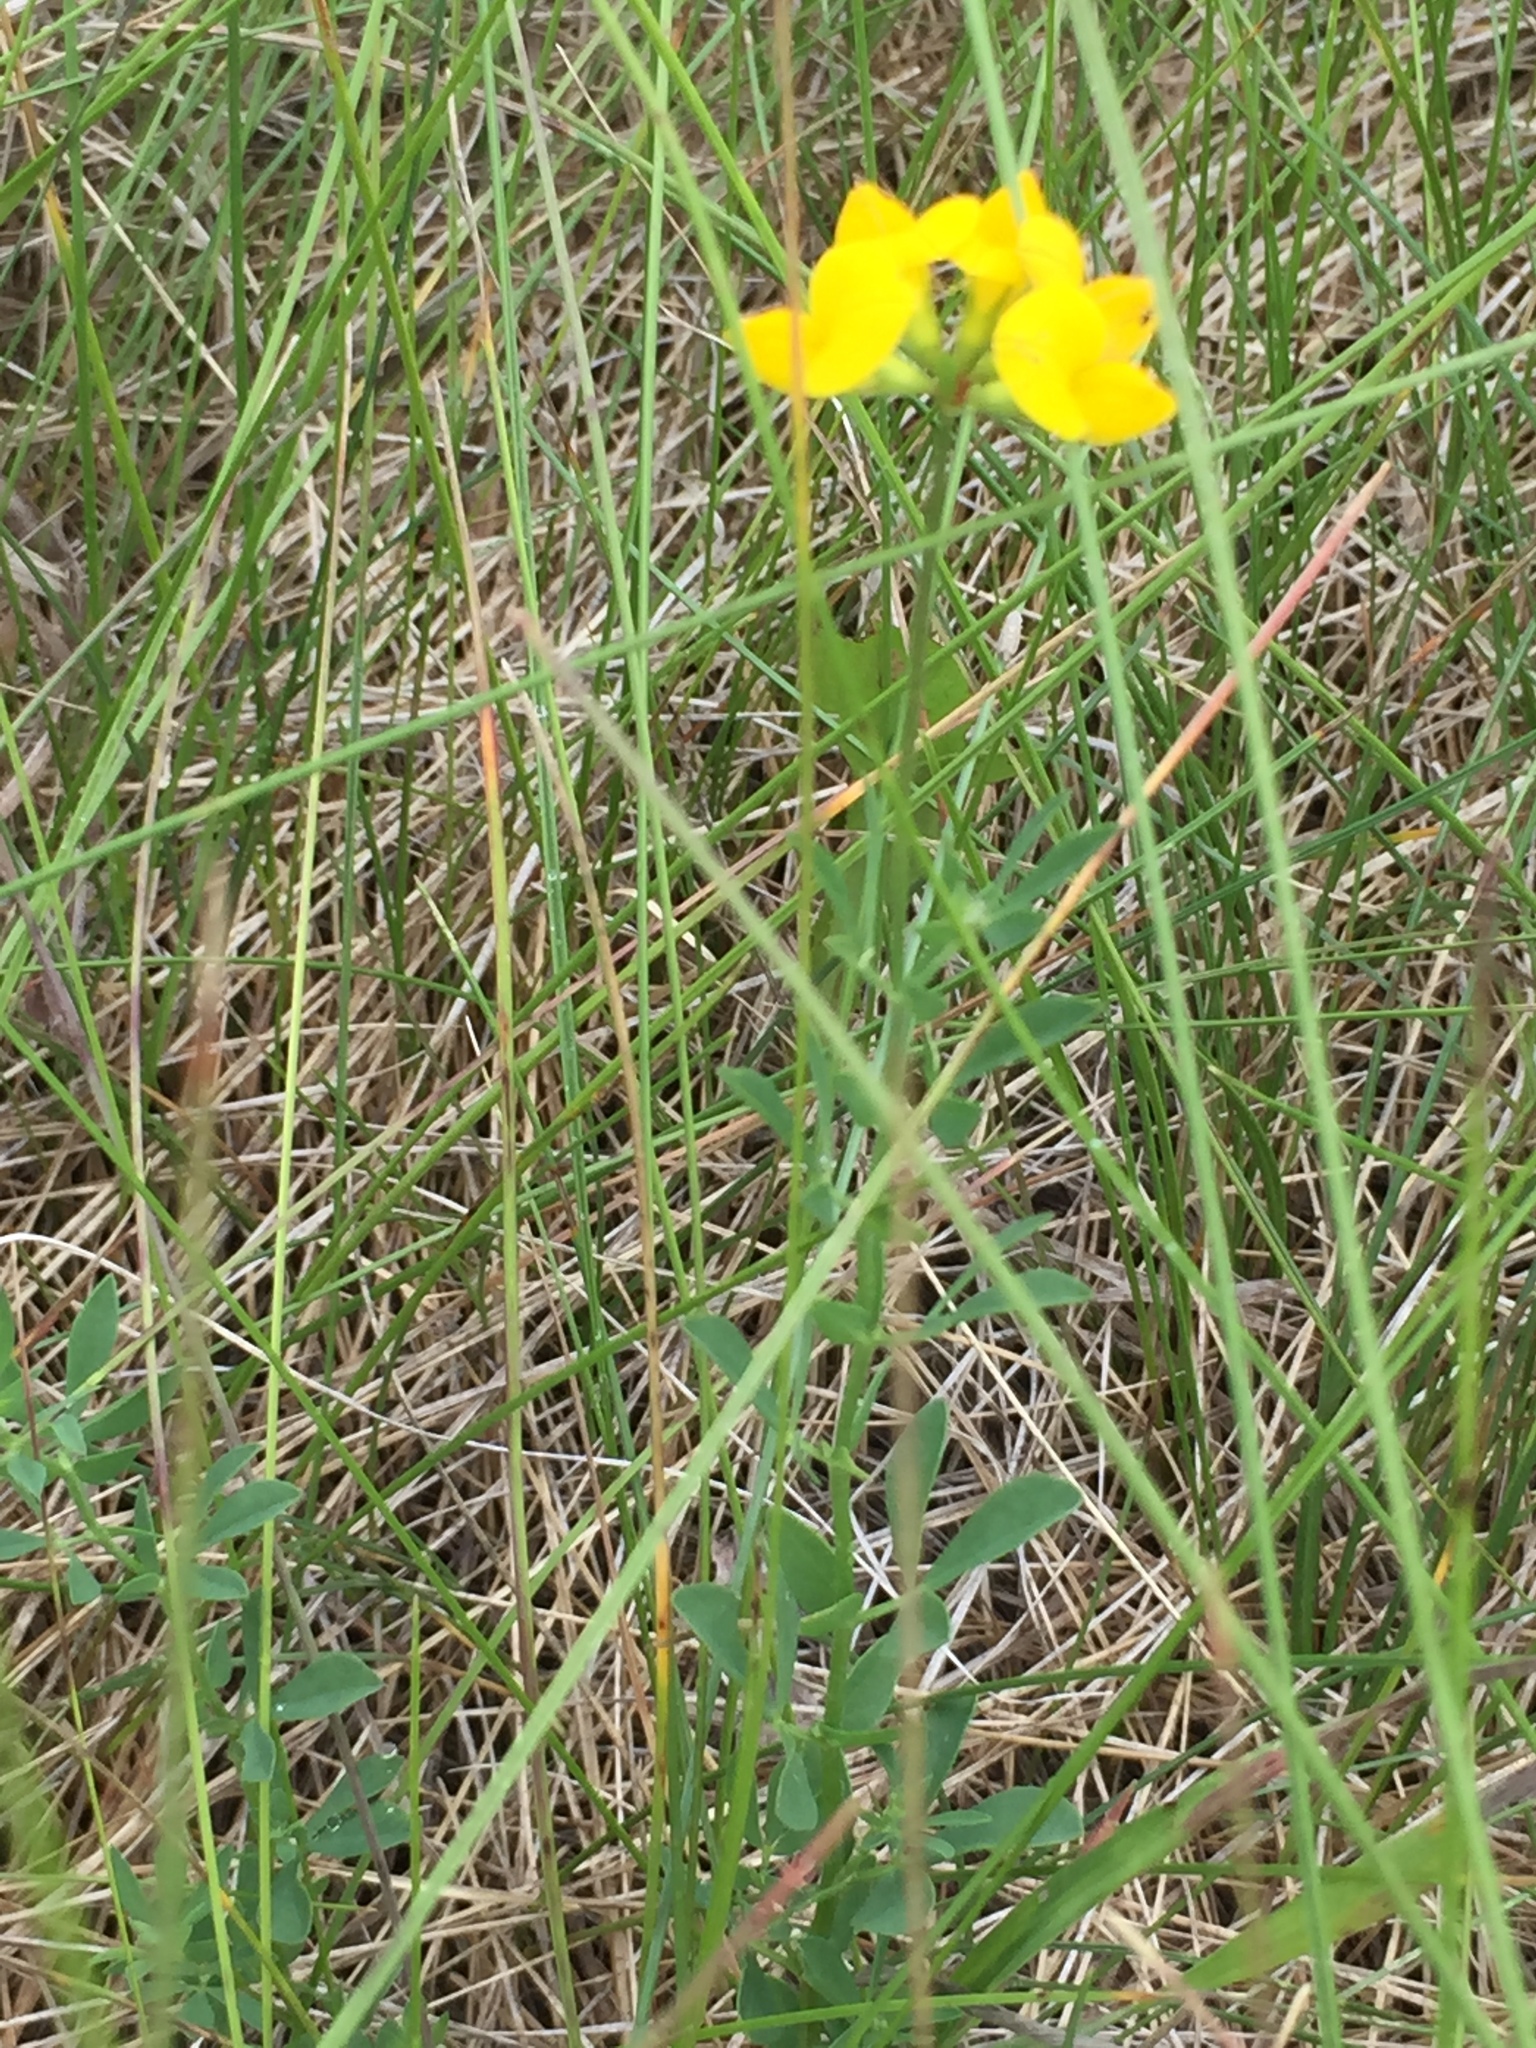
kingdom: Plantae
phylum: Tracheophyta
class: Magnoliopsida
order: Fabales
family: Fabaceae
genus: Lotus
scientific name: Lotus corniculatus
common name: Common bird's-foot-trefoil
